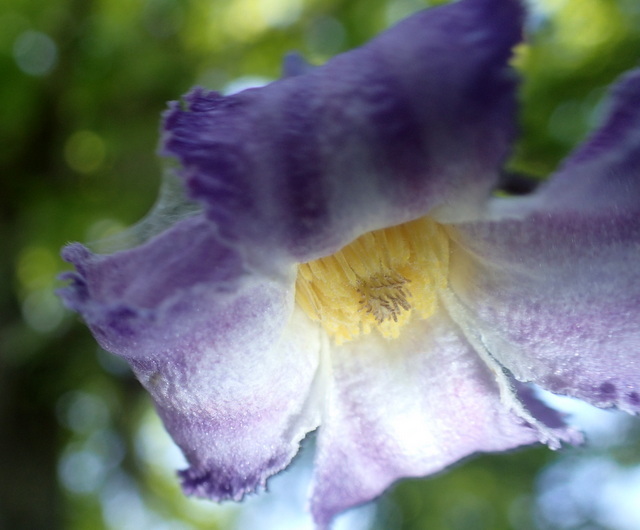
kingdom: Plantae
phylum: Tracheophyta
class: Magnoliopsida
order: Ranunculales
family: Ranunculaceae
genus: Clematis
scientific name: Clematis crispa
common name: Curly clematis
